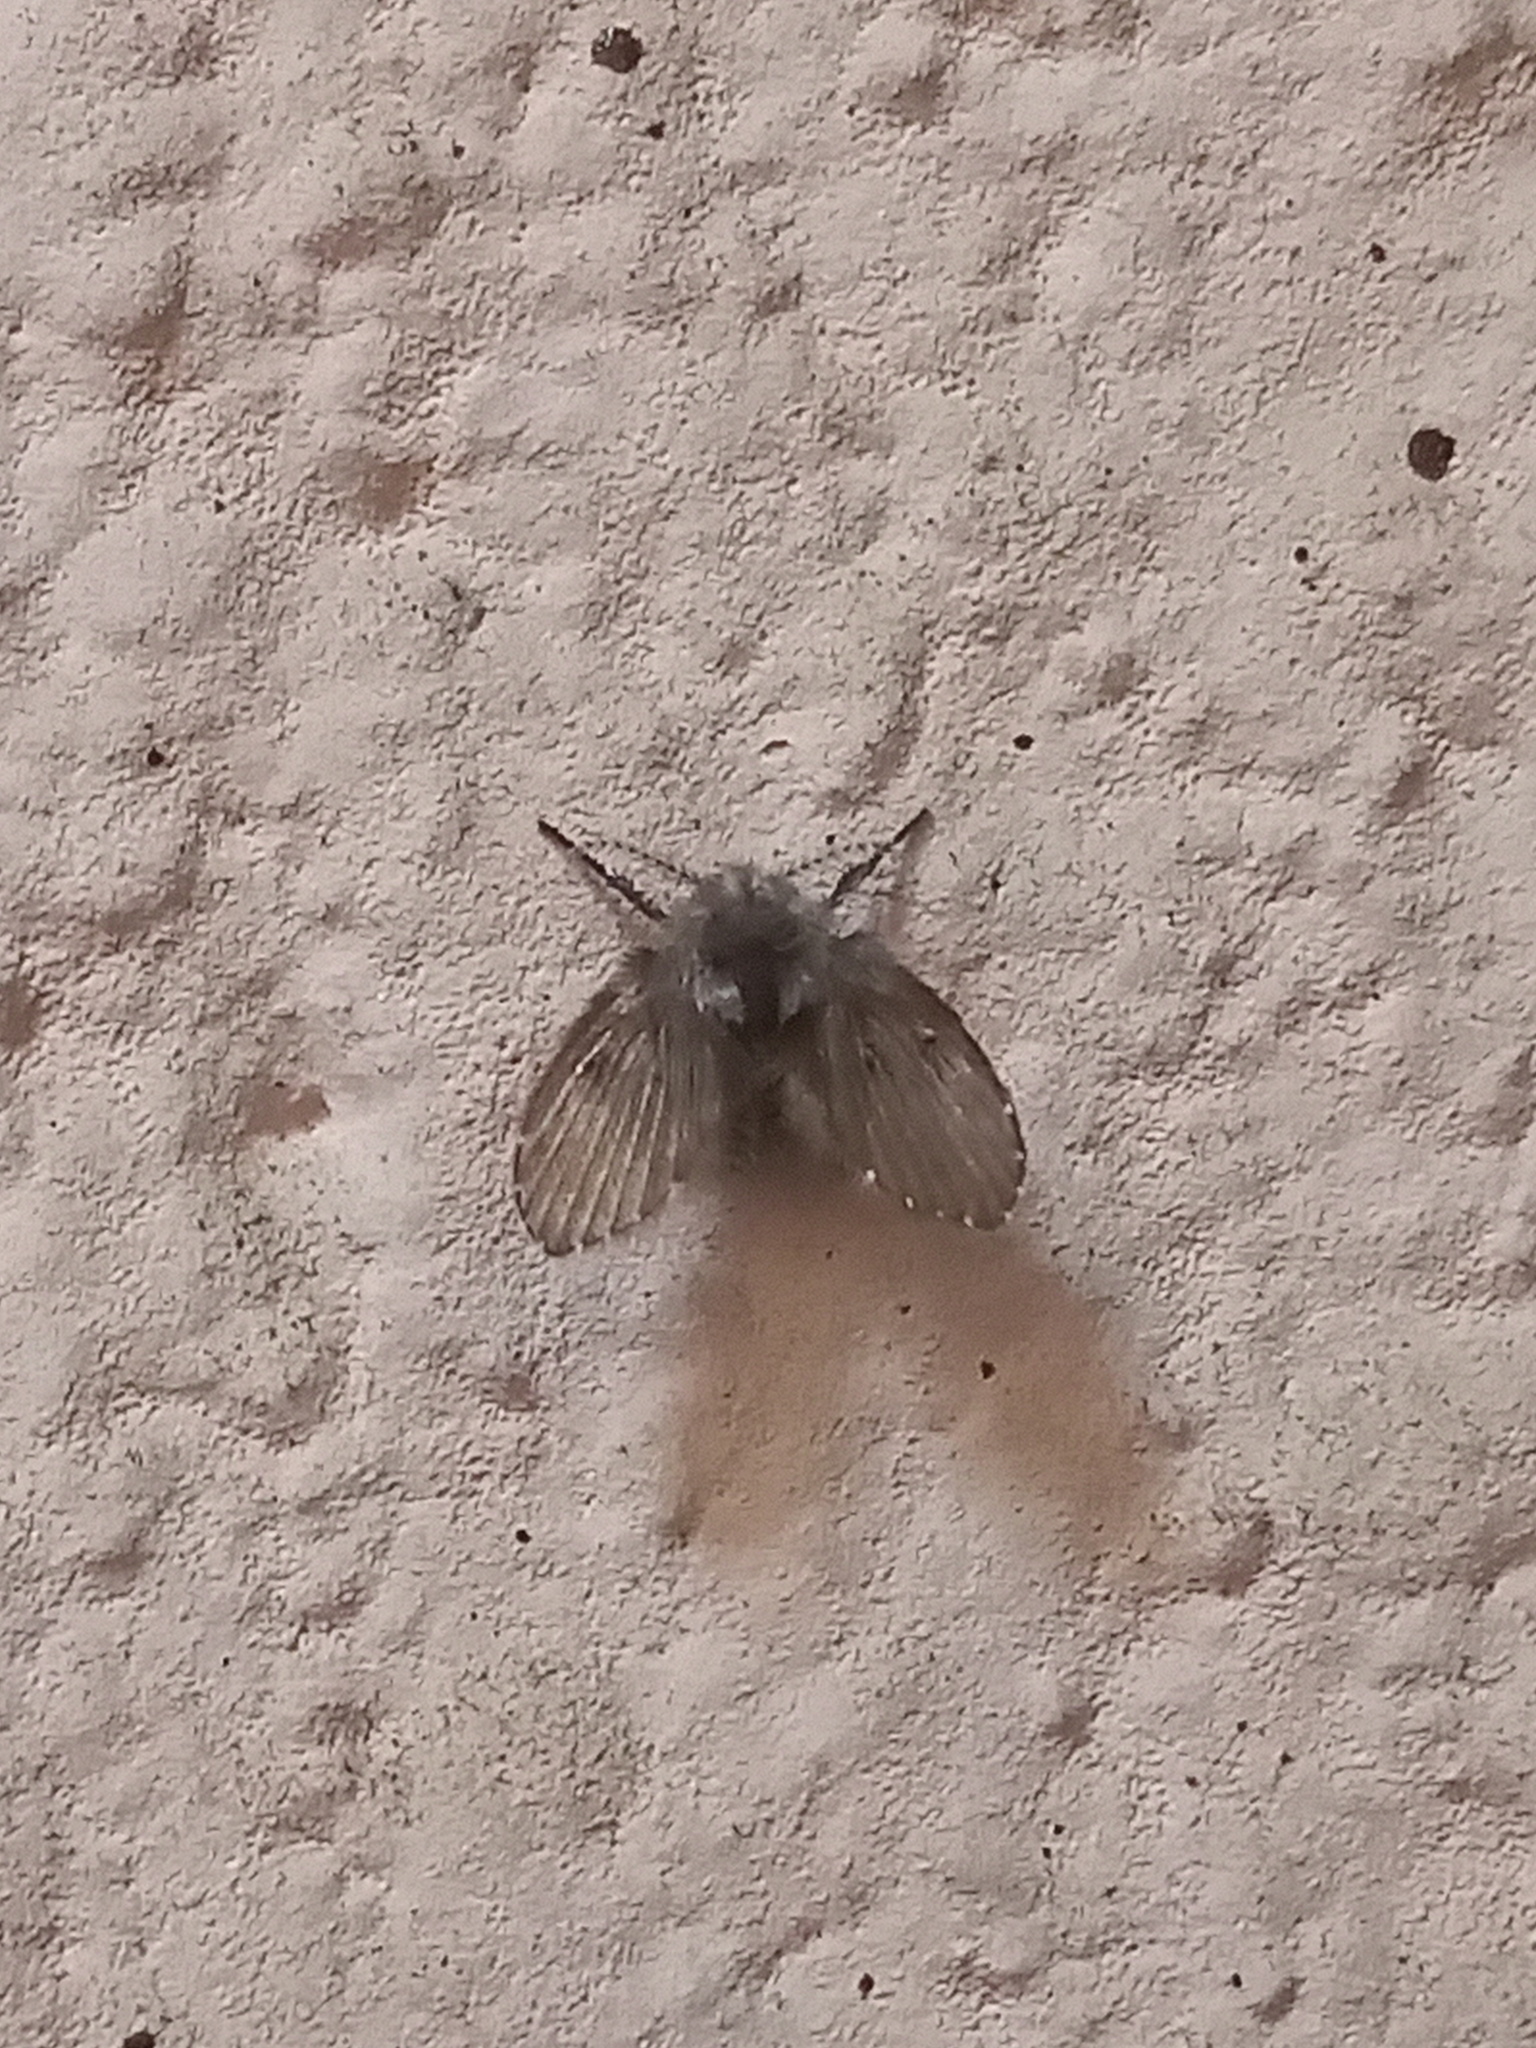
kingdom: Animalia
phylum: Arthropoda
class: Insecta
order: Diptera
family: Psychodidae
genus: Clogmia
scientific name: Clogmia albipunctatus
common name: White-spotted moth fly
